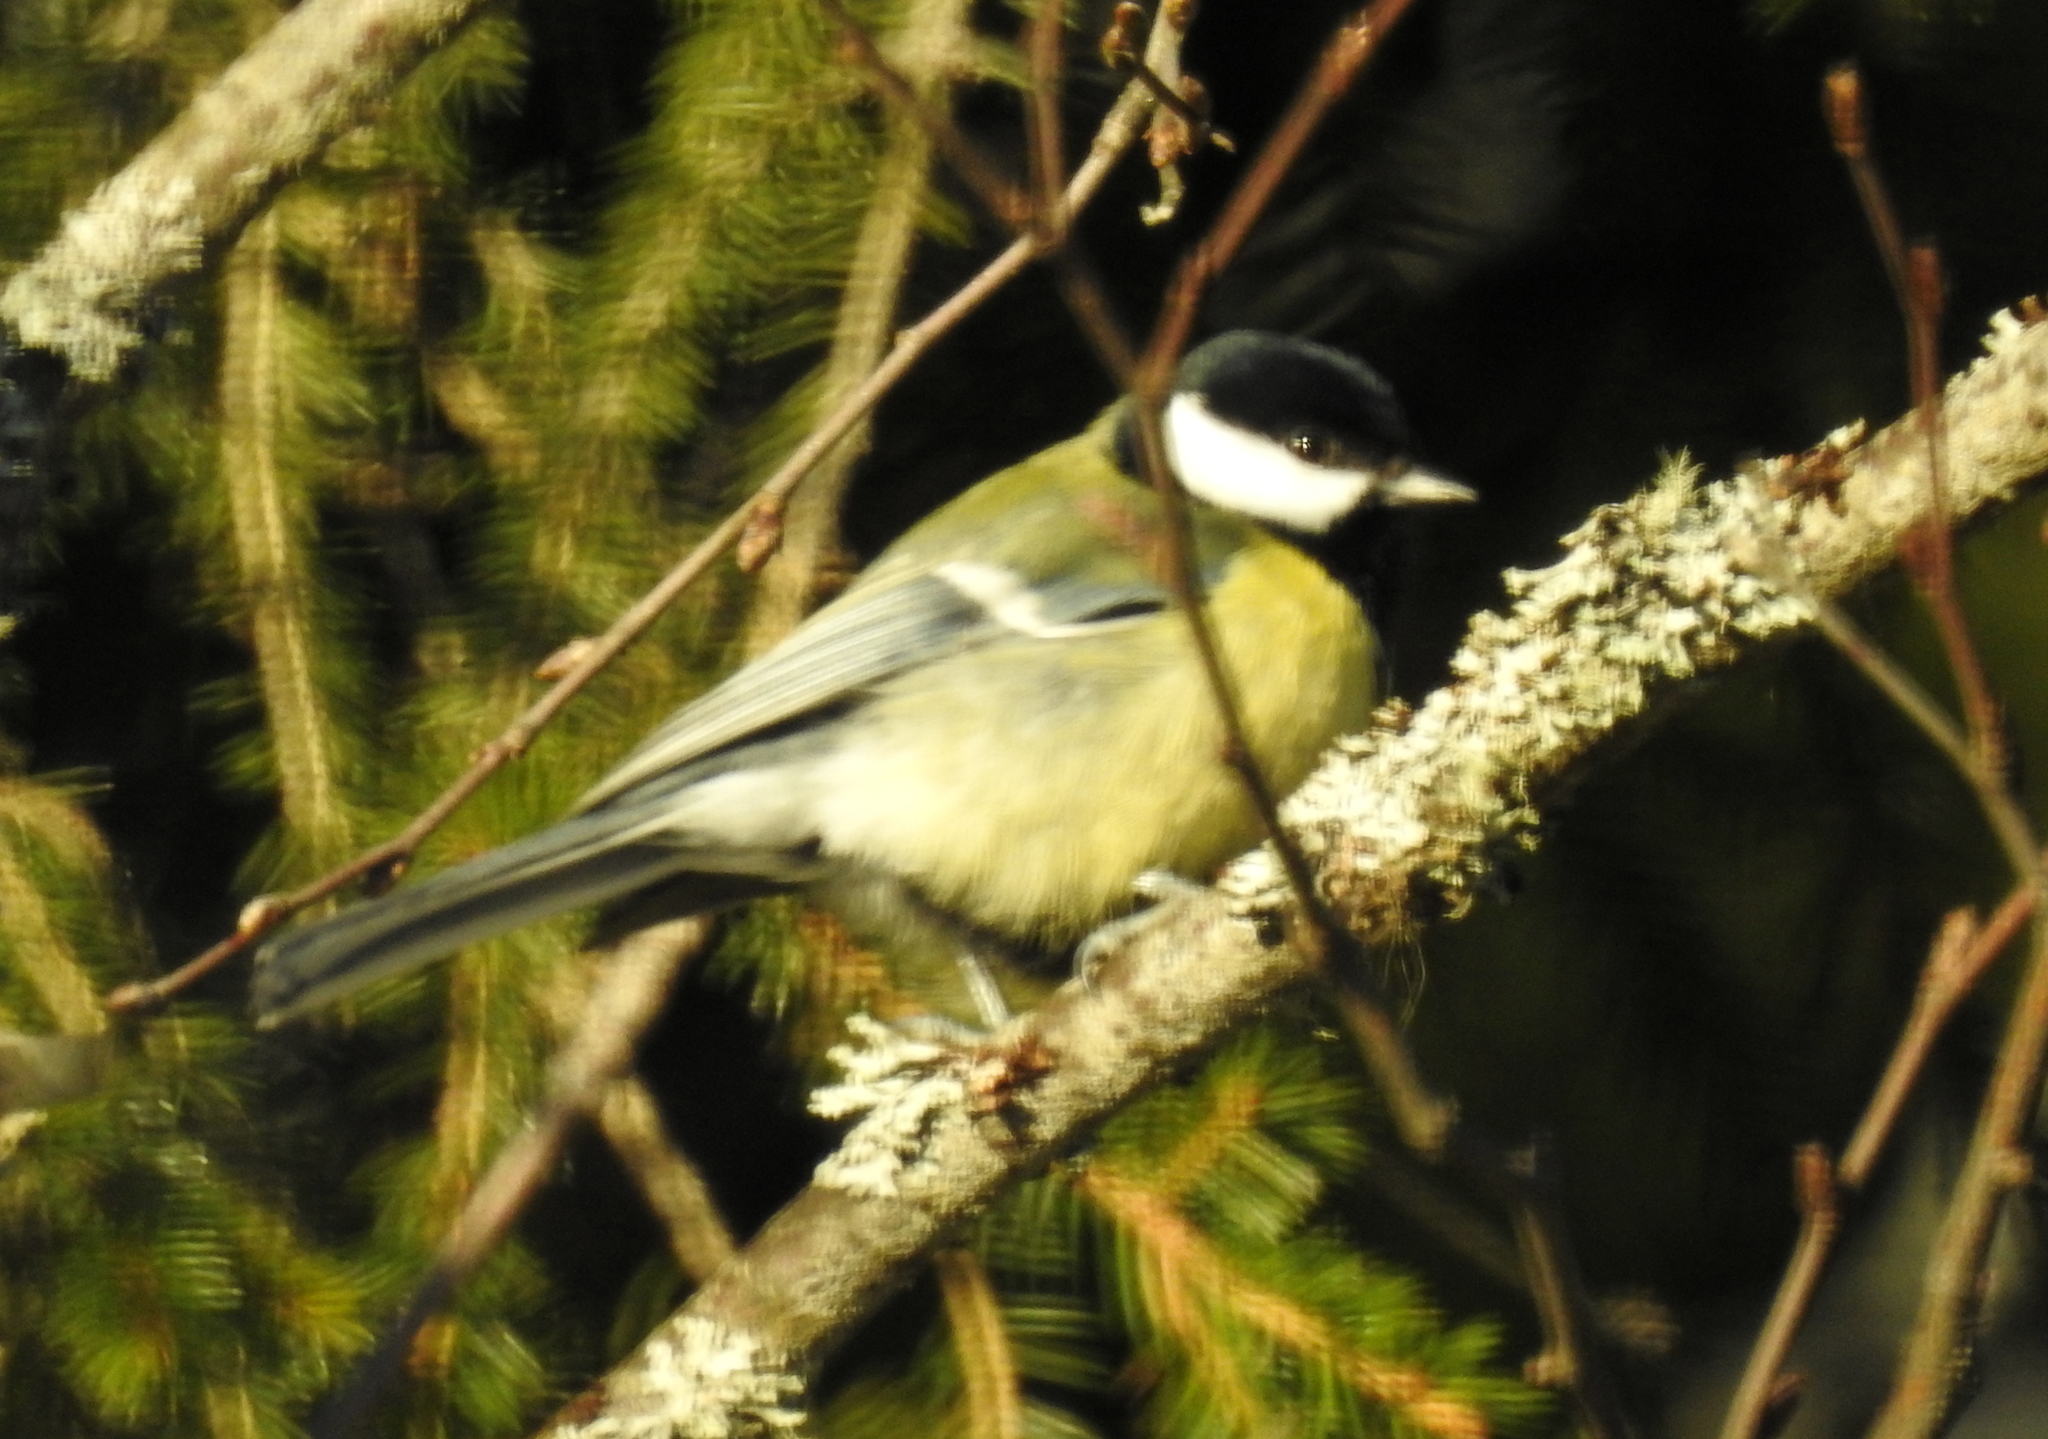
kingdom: Animalia
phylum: Chordata
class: Aves
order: Passeriformes
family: Paridae
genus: Parus
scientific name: Parus major
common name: Great tit
